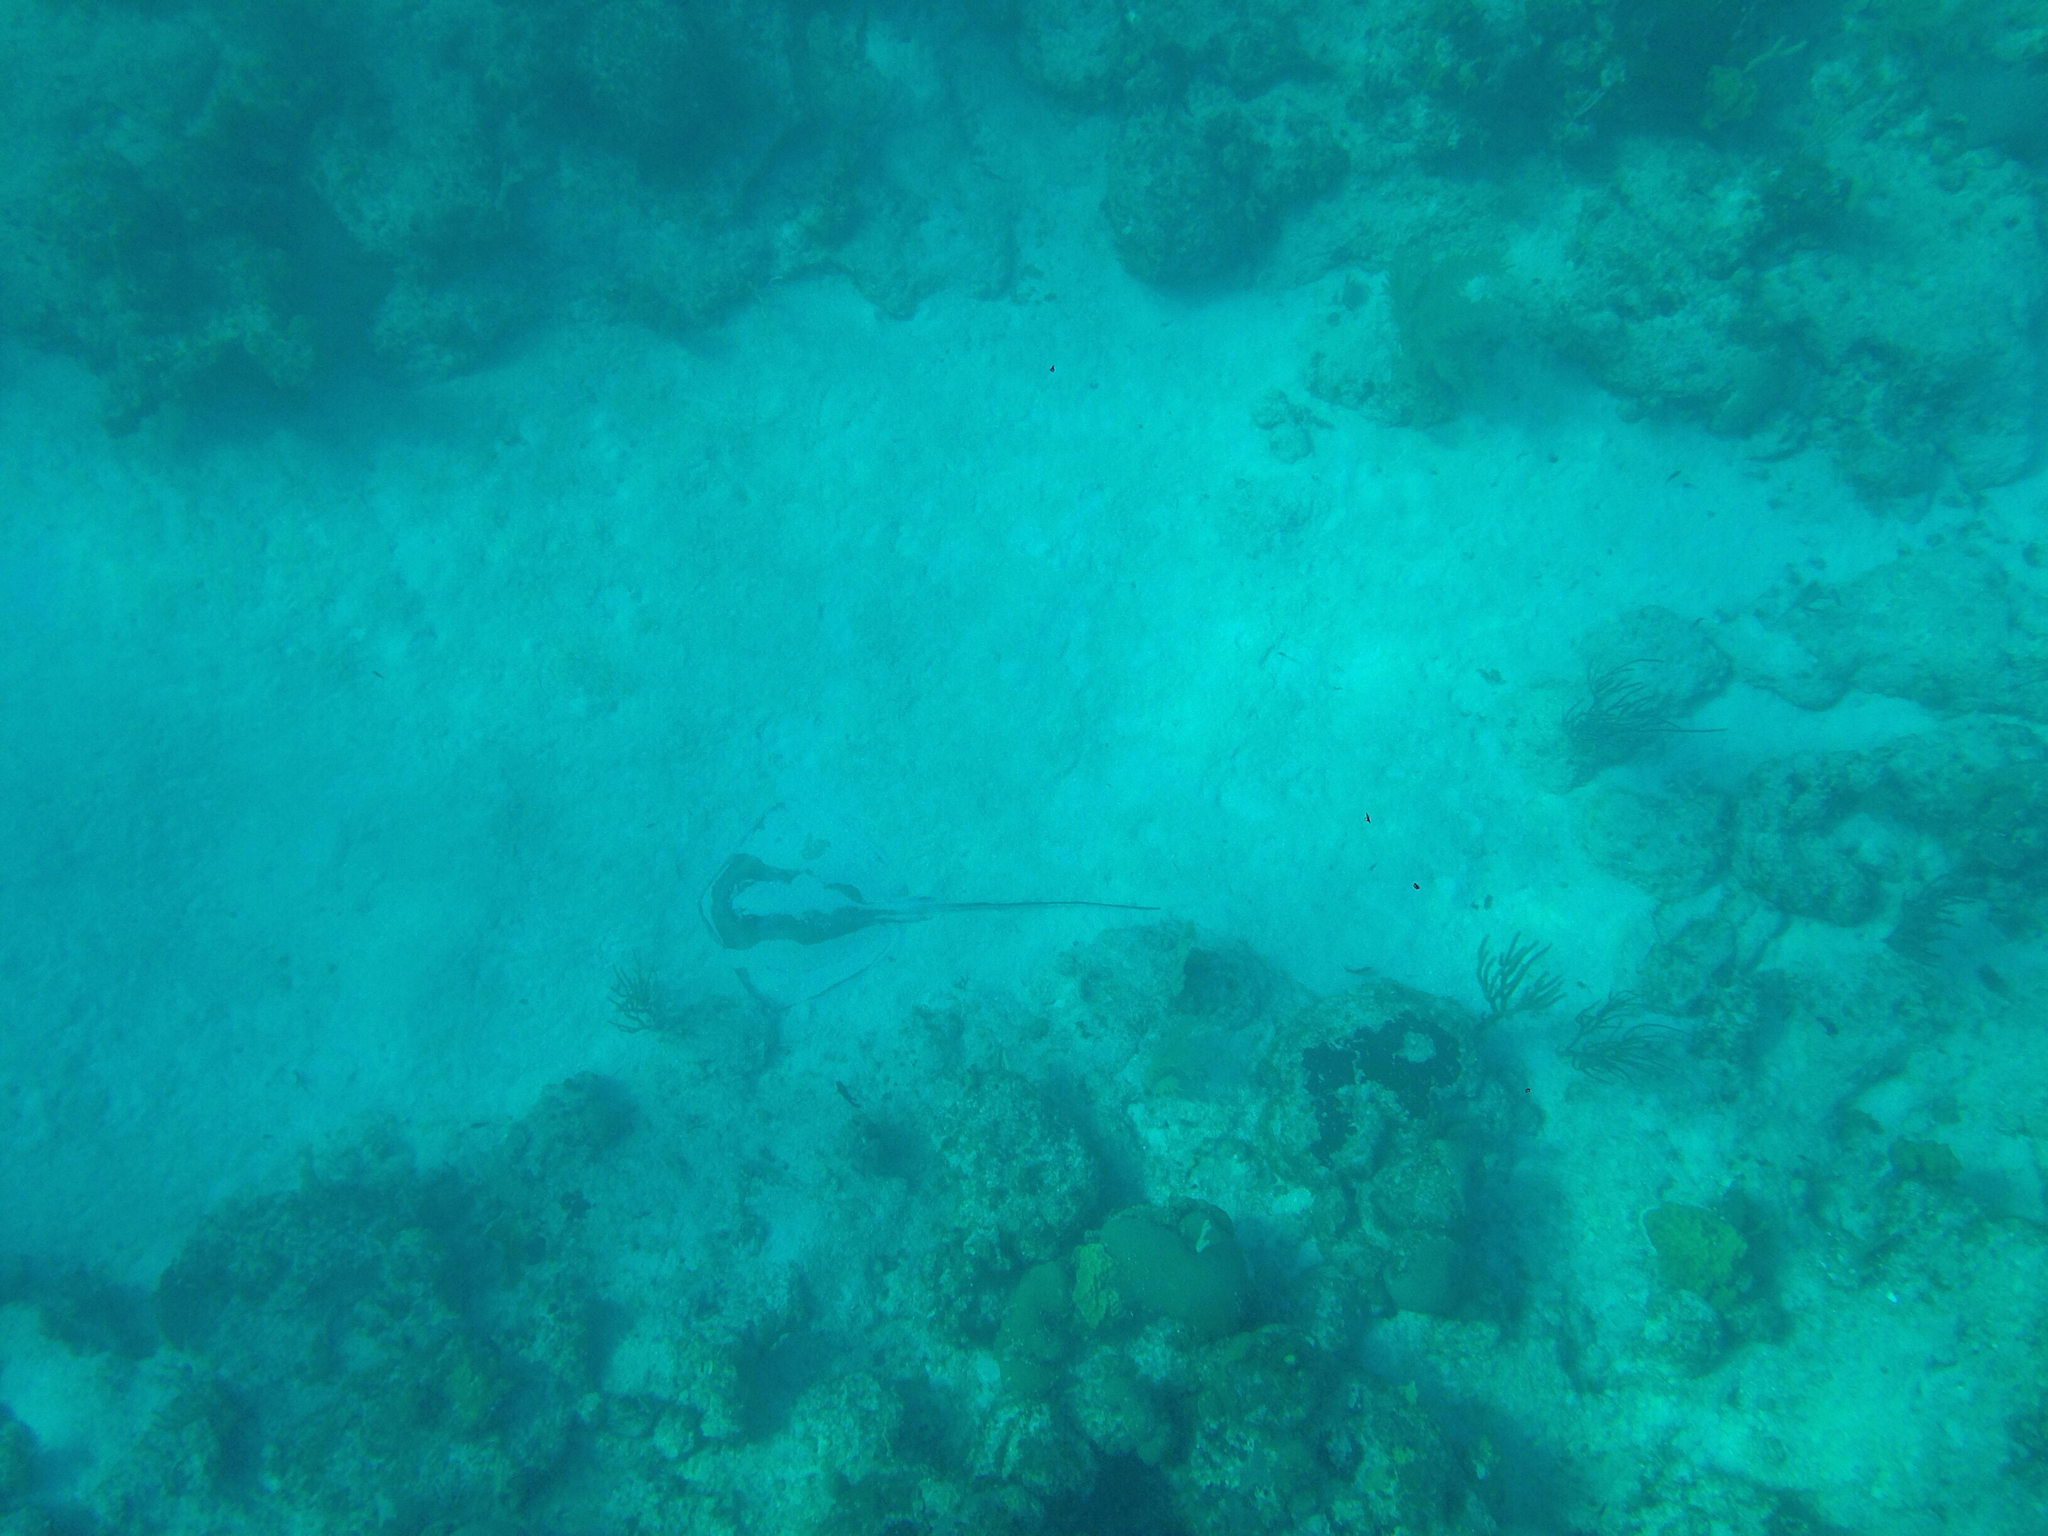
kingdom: Animalia
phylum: Chordata
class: Elasmobranchii
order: Myliobatiformes
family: Dasyatidae
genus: Hypanus
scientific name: Hypanus americanus
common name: Southern stingray
